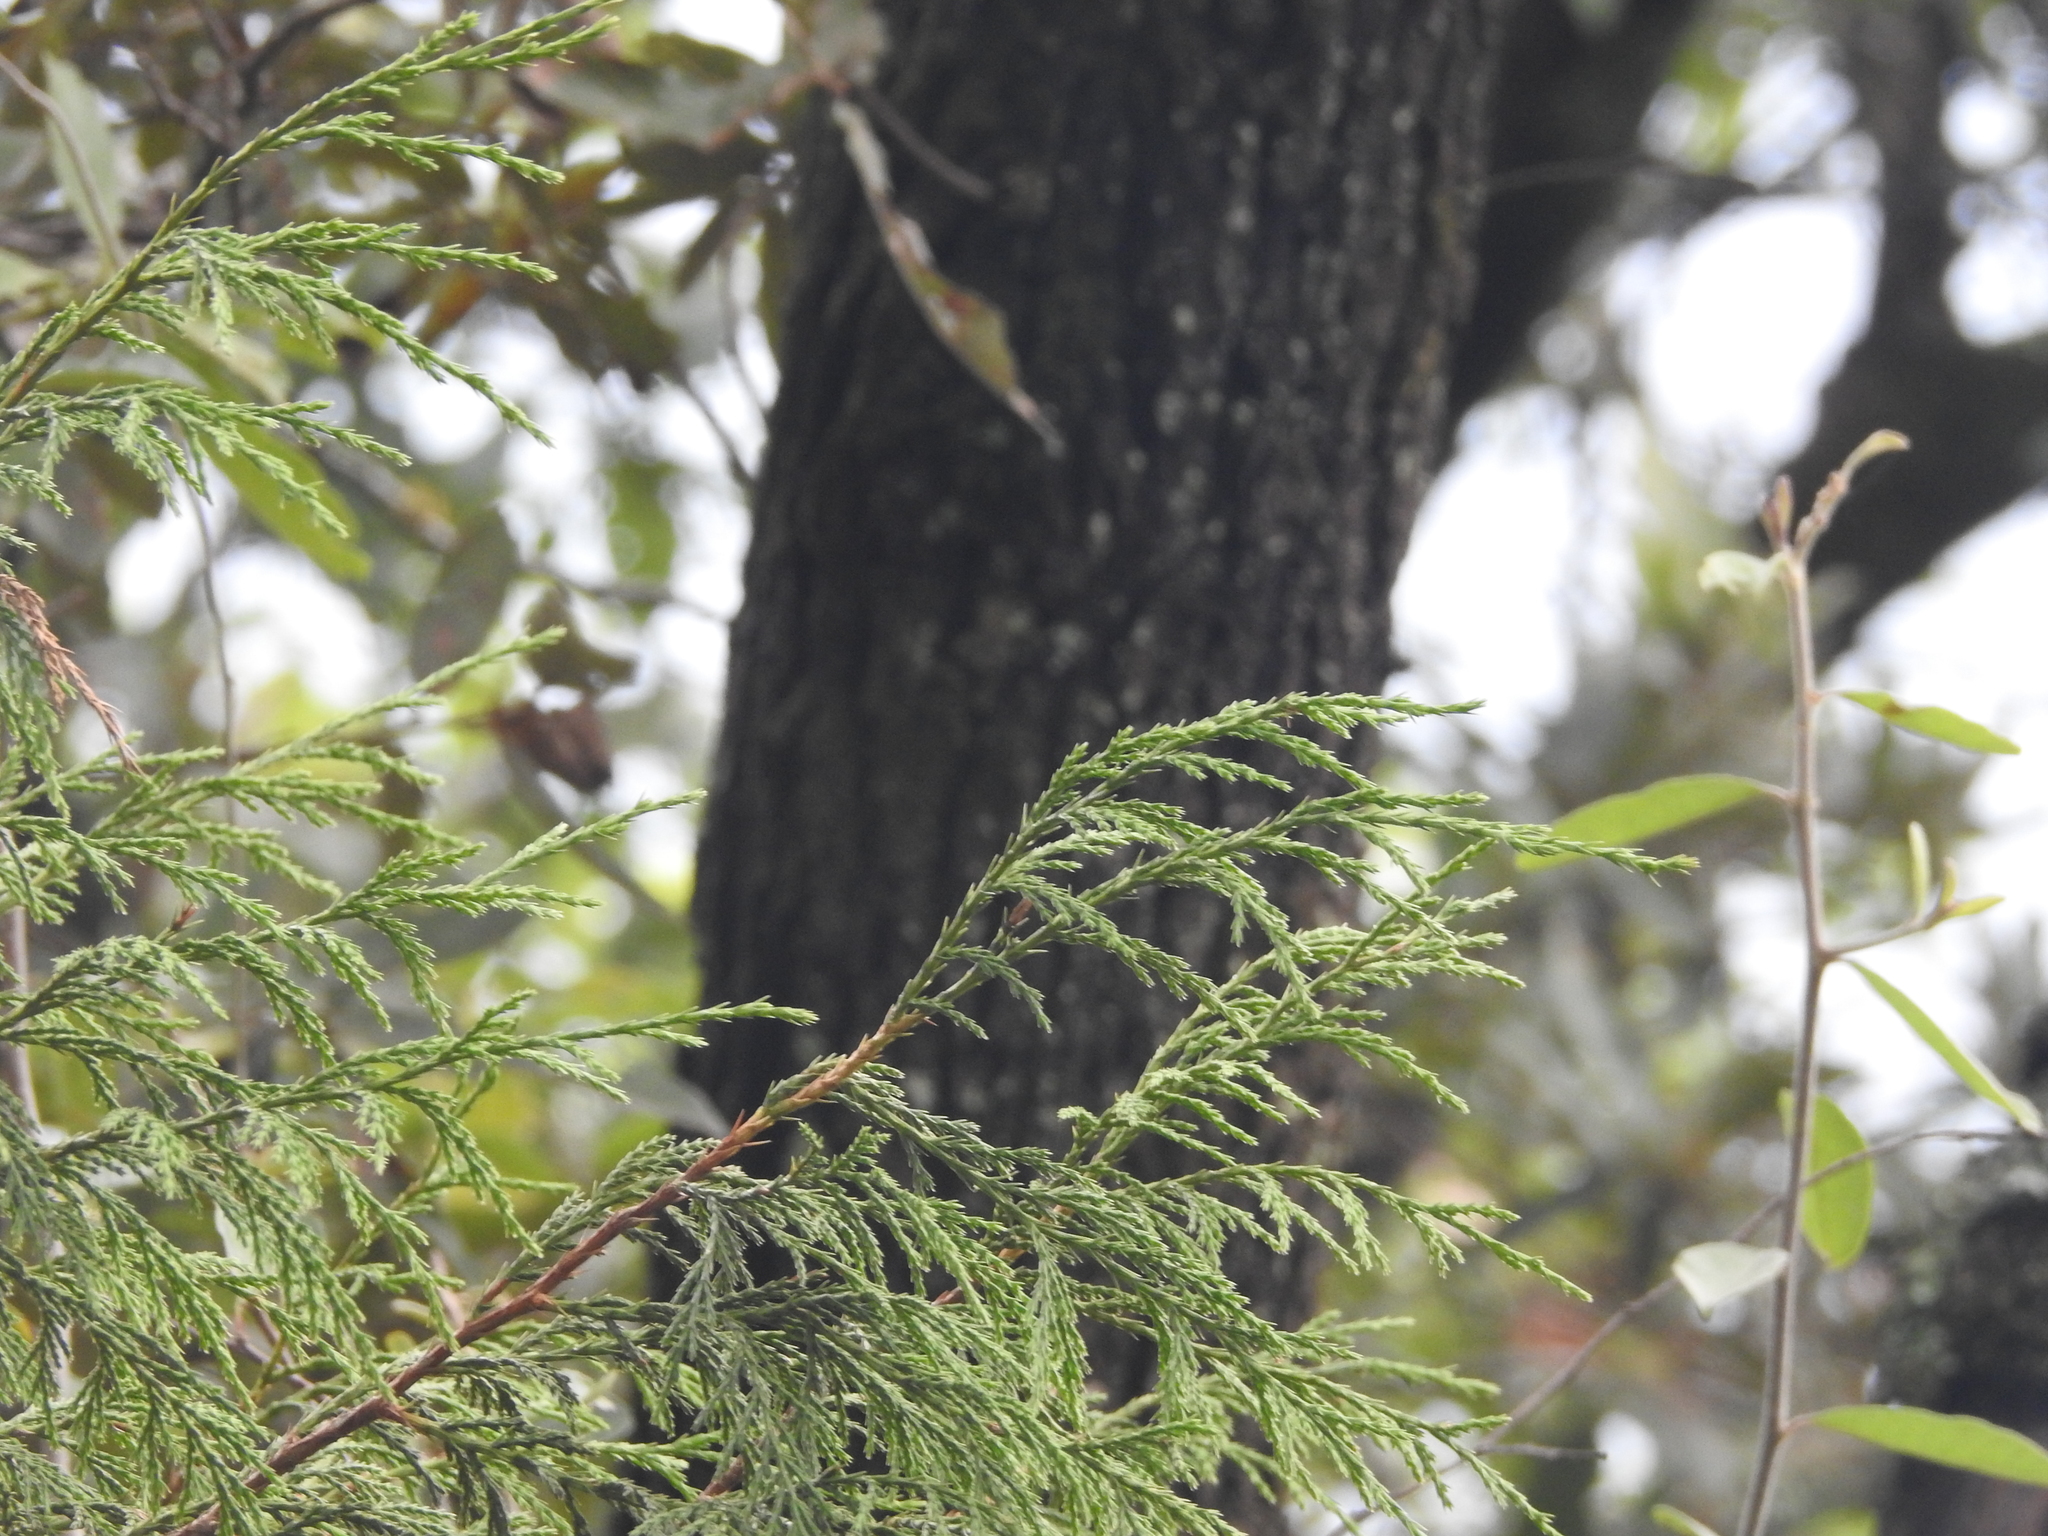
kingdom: Plantae
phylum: Tracheophyta
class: Pinopsida
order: Pinales
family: Cupressaceae
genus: Juniperus
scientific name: Juniperus flaccida
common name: Drooping juniper
